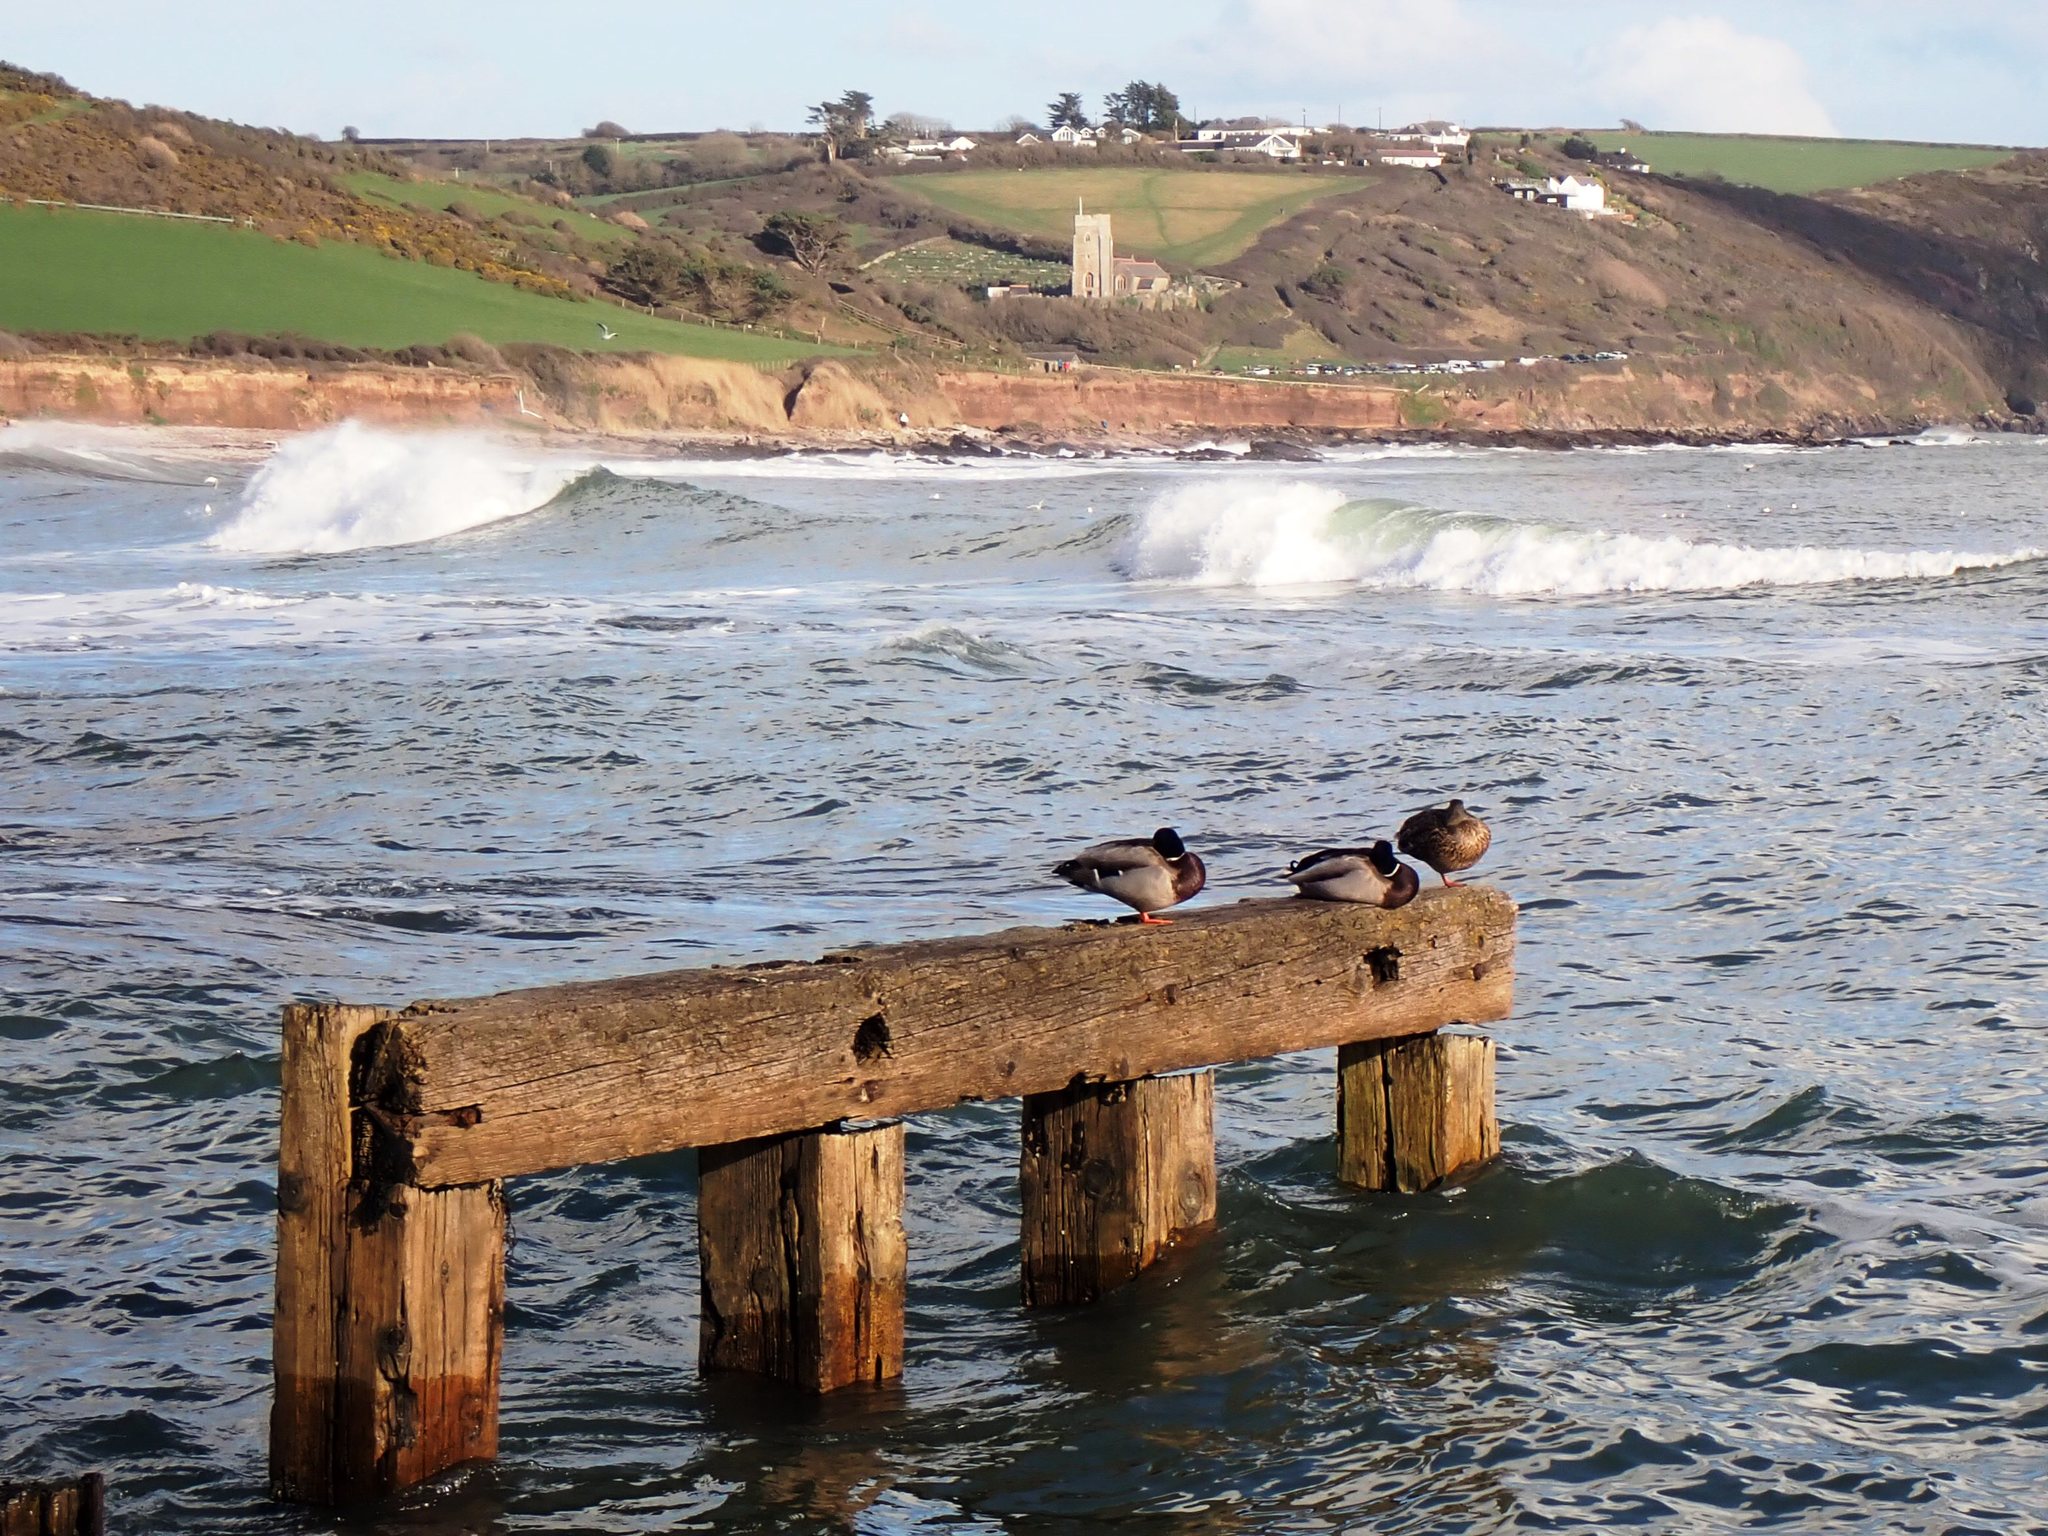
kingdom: Animalia
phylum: Chordata
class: Aves
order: Anseriformes
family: Anatidae
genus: Anas
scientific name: Anas platyrhynchos
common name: Mallard
